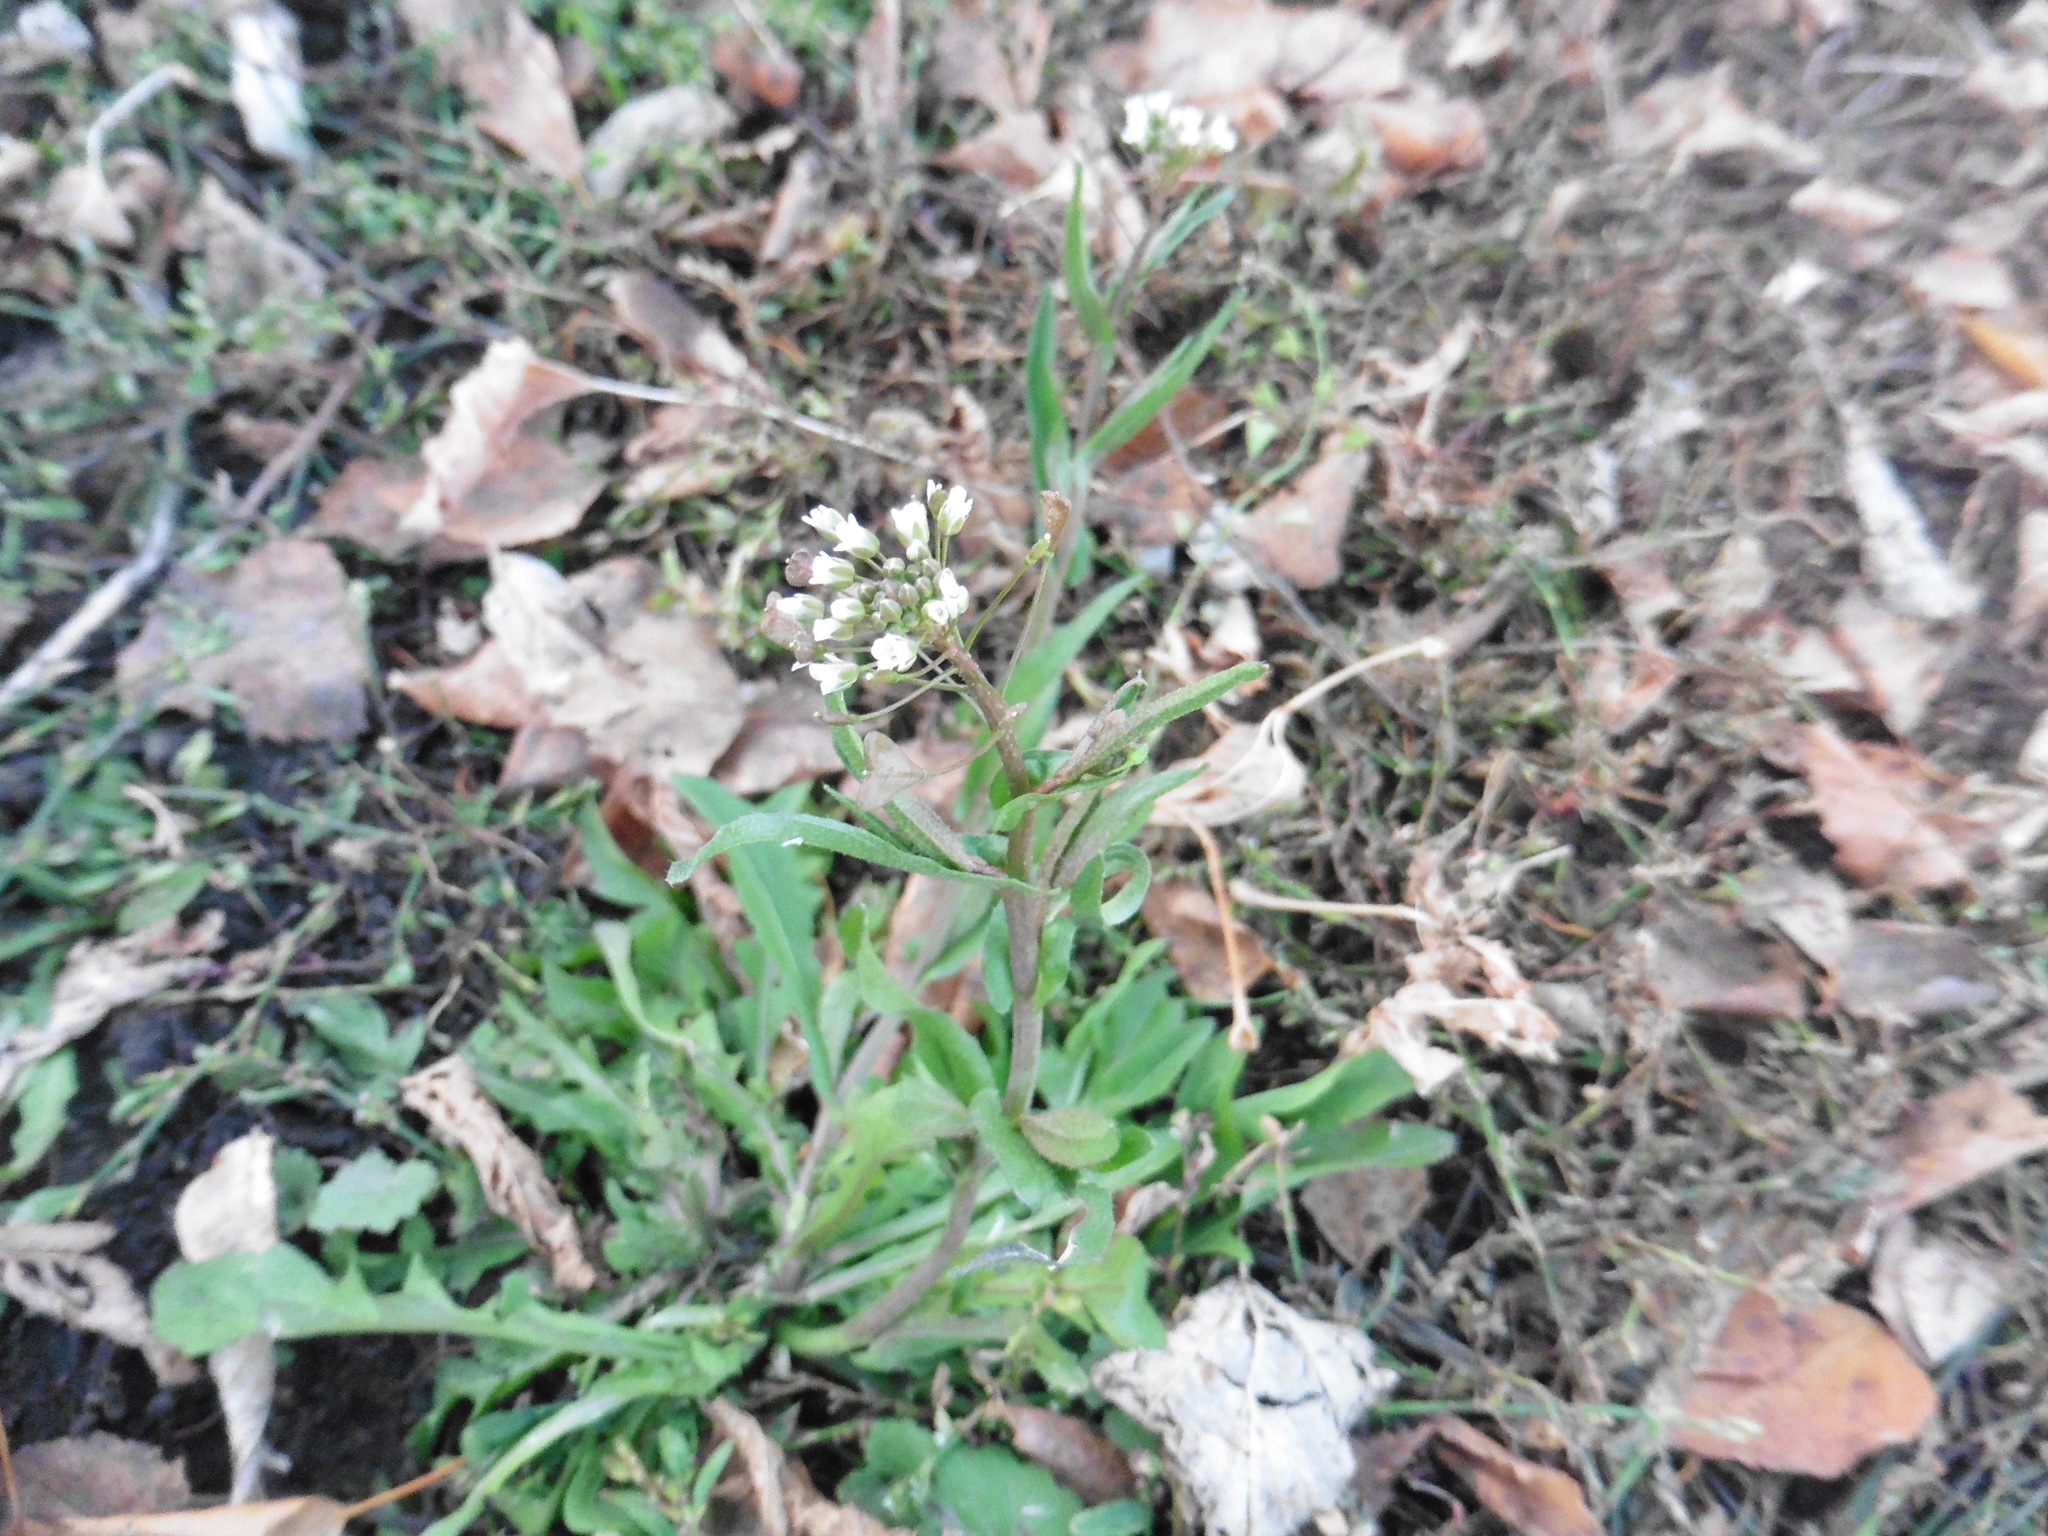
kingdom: Plantae
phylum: Tracheophyta
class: Magnoliopsida
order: Brassicales
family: Brassicaceae
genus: Capsella
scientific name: Capsella bursa-pastoris
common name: Shepherd's purse
